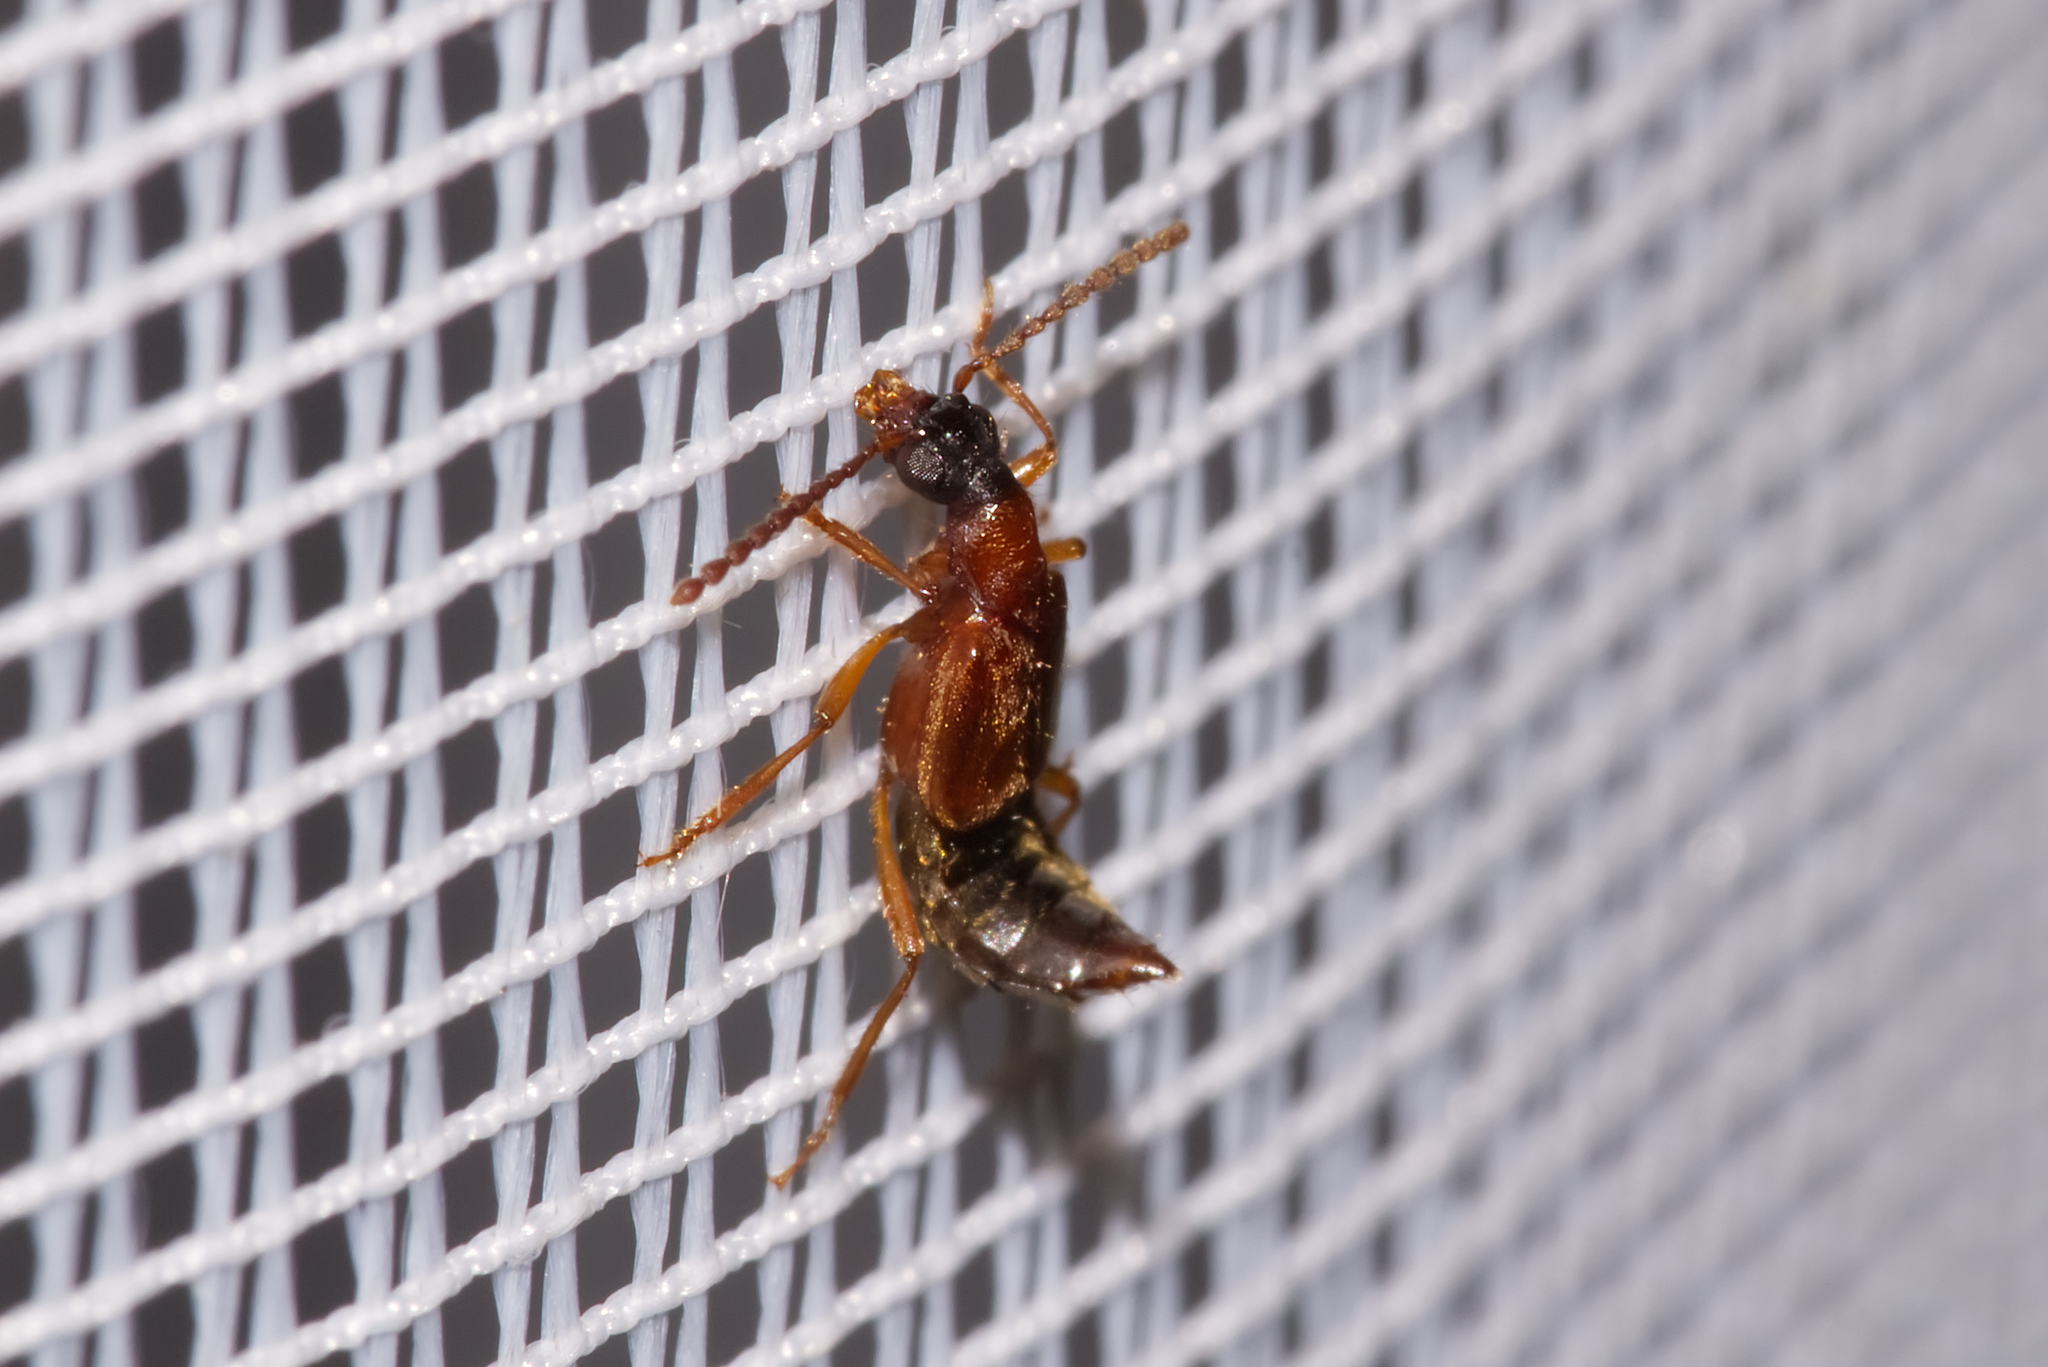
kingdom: Animalia
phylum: Arthropoda
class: Insecta
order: Coleoptera
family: Staphylinidae
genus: Deleaster
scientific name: Deleaster dichrous
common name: Rove beetle
